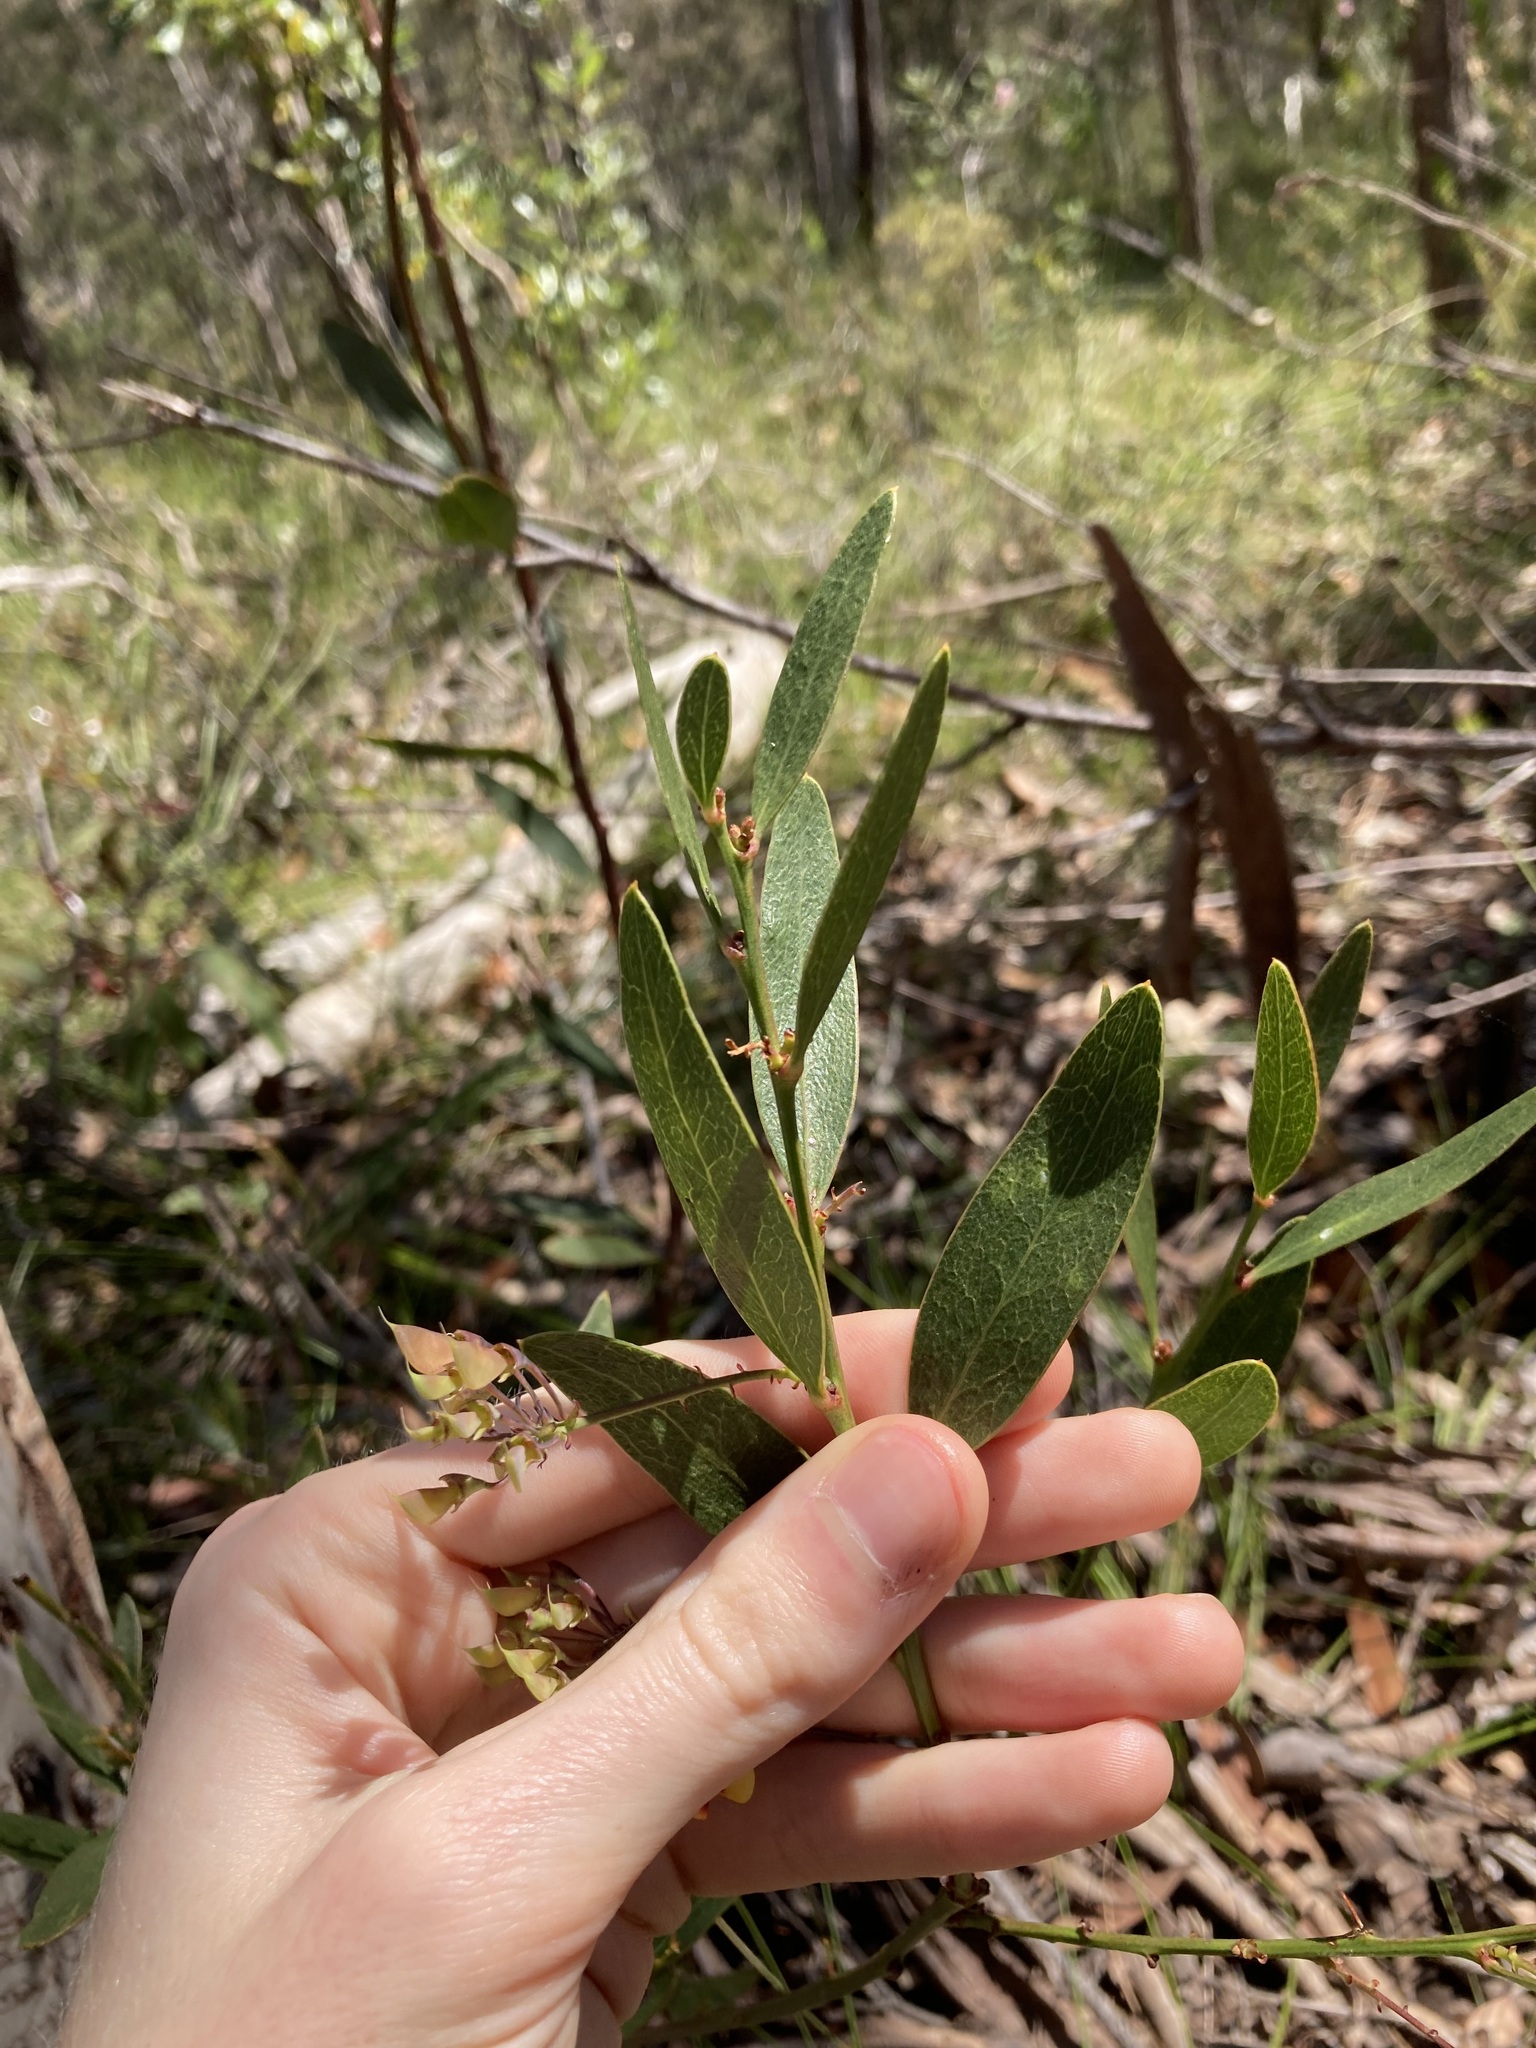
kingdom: Plantae
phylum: Tracheophyta
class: Magnoliopsida
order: Fabales
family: Fabaceae
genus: Daviesia
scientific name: Daviesia corymbosa
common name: Narrow-leaf bitter-pea
